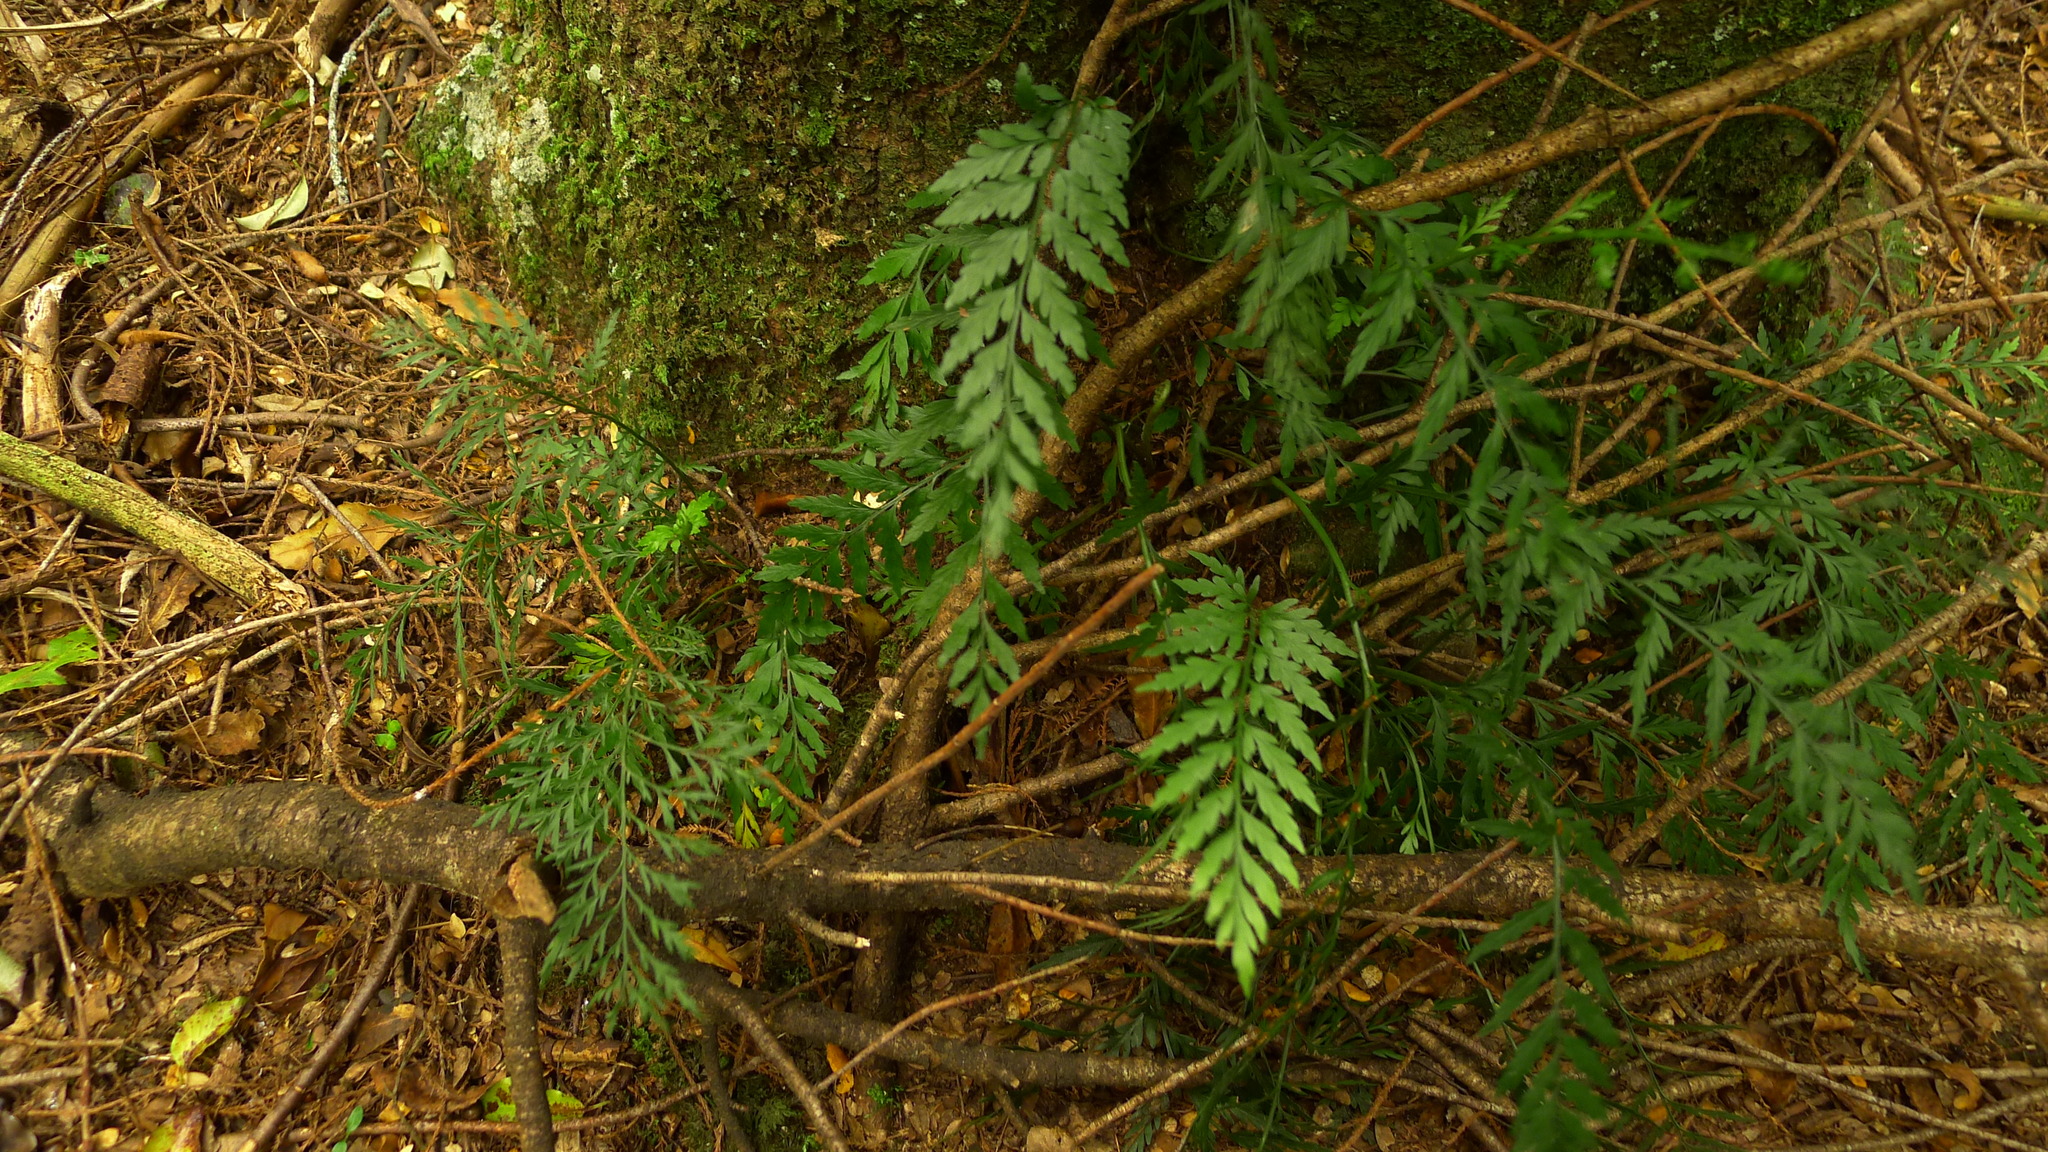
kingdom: Plantae
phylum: Tracheophyta
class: Polypodiopsida
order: Polypodiales
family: Aspleniaceae
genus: Asplenium
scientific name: Asplenium appendiculatum
